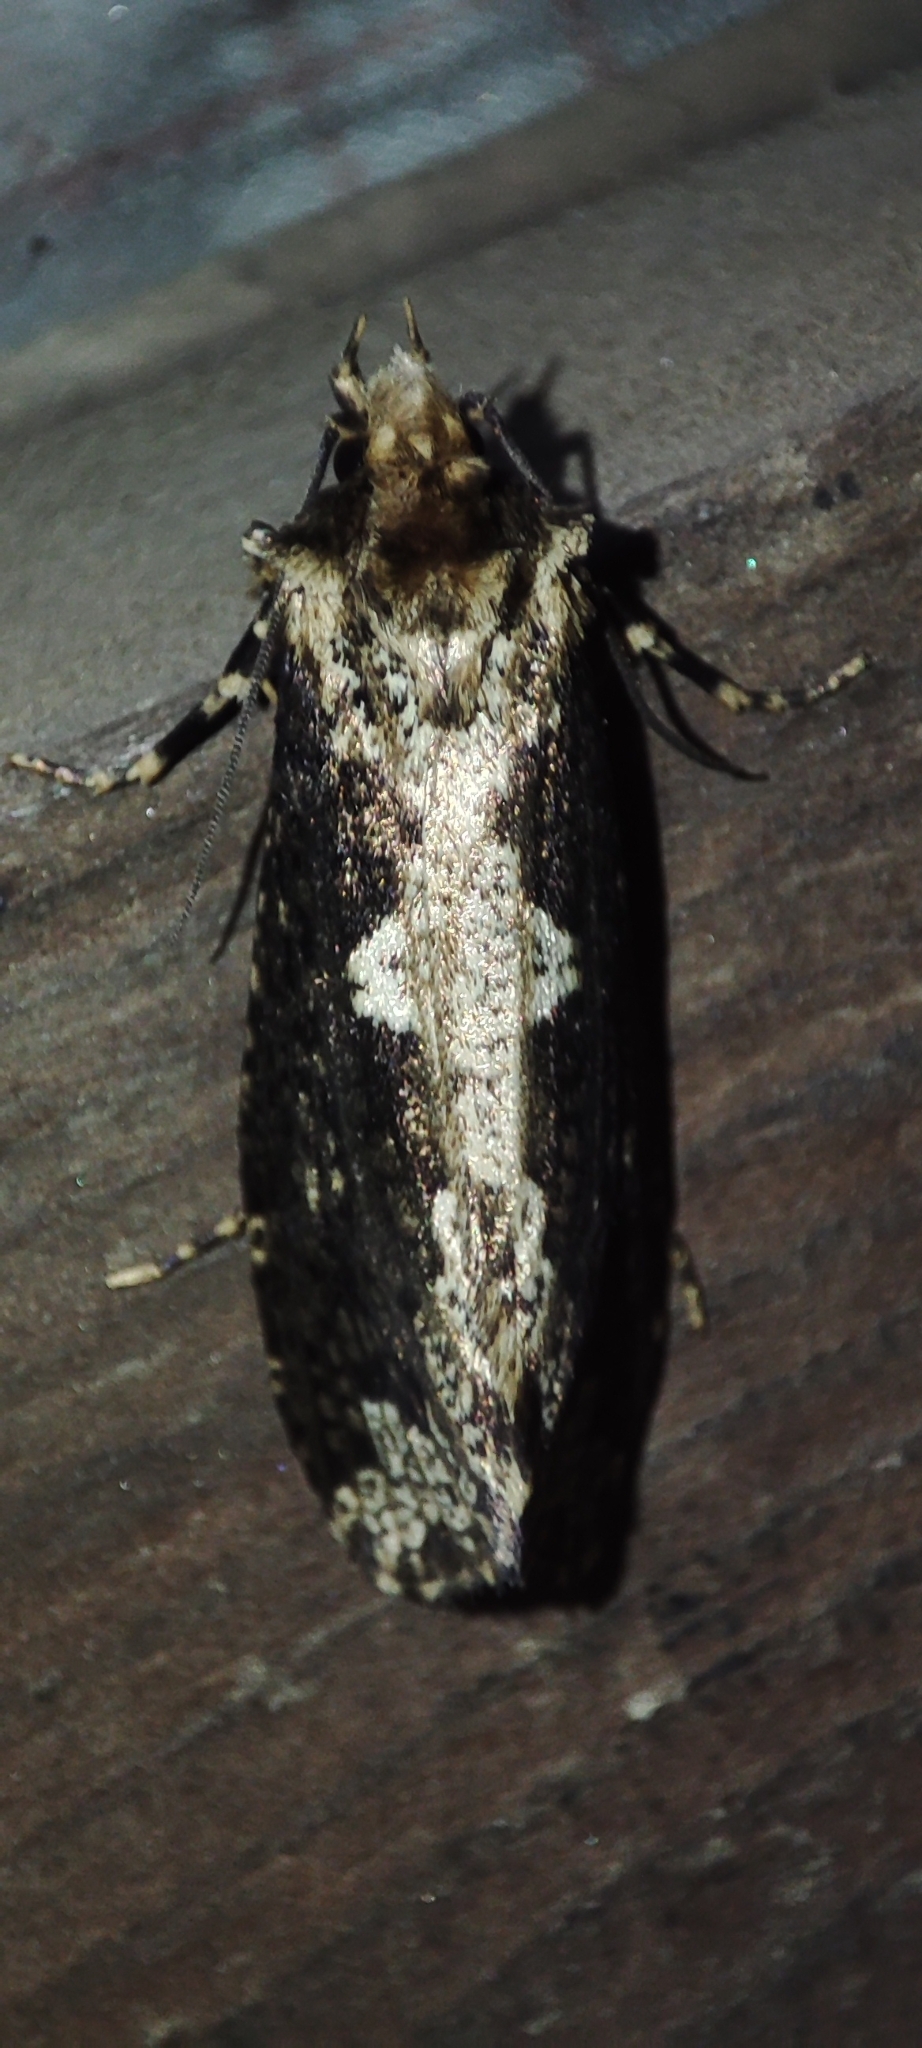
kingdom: Animalia
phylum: Arthropoda
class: Insecta
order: Lepidoptera
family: Tineidae
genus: Scardia
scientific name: Scardia boletella
